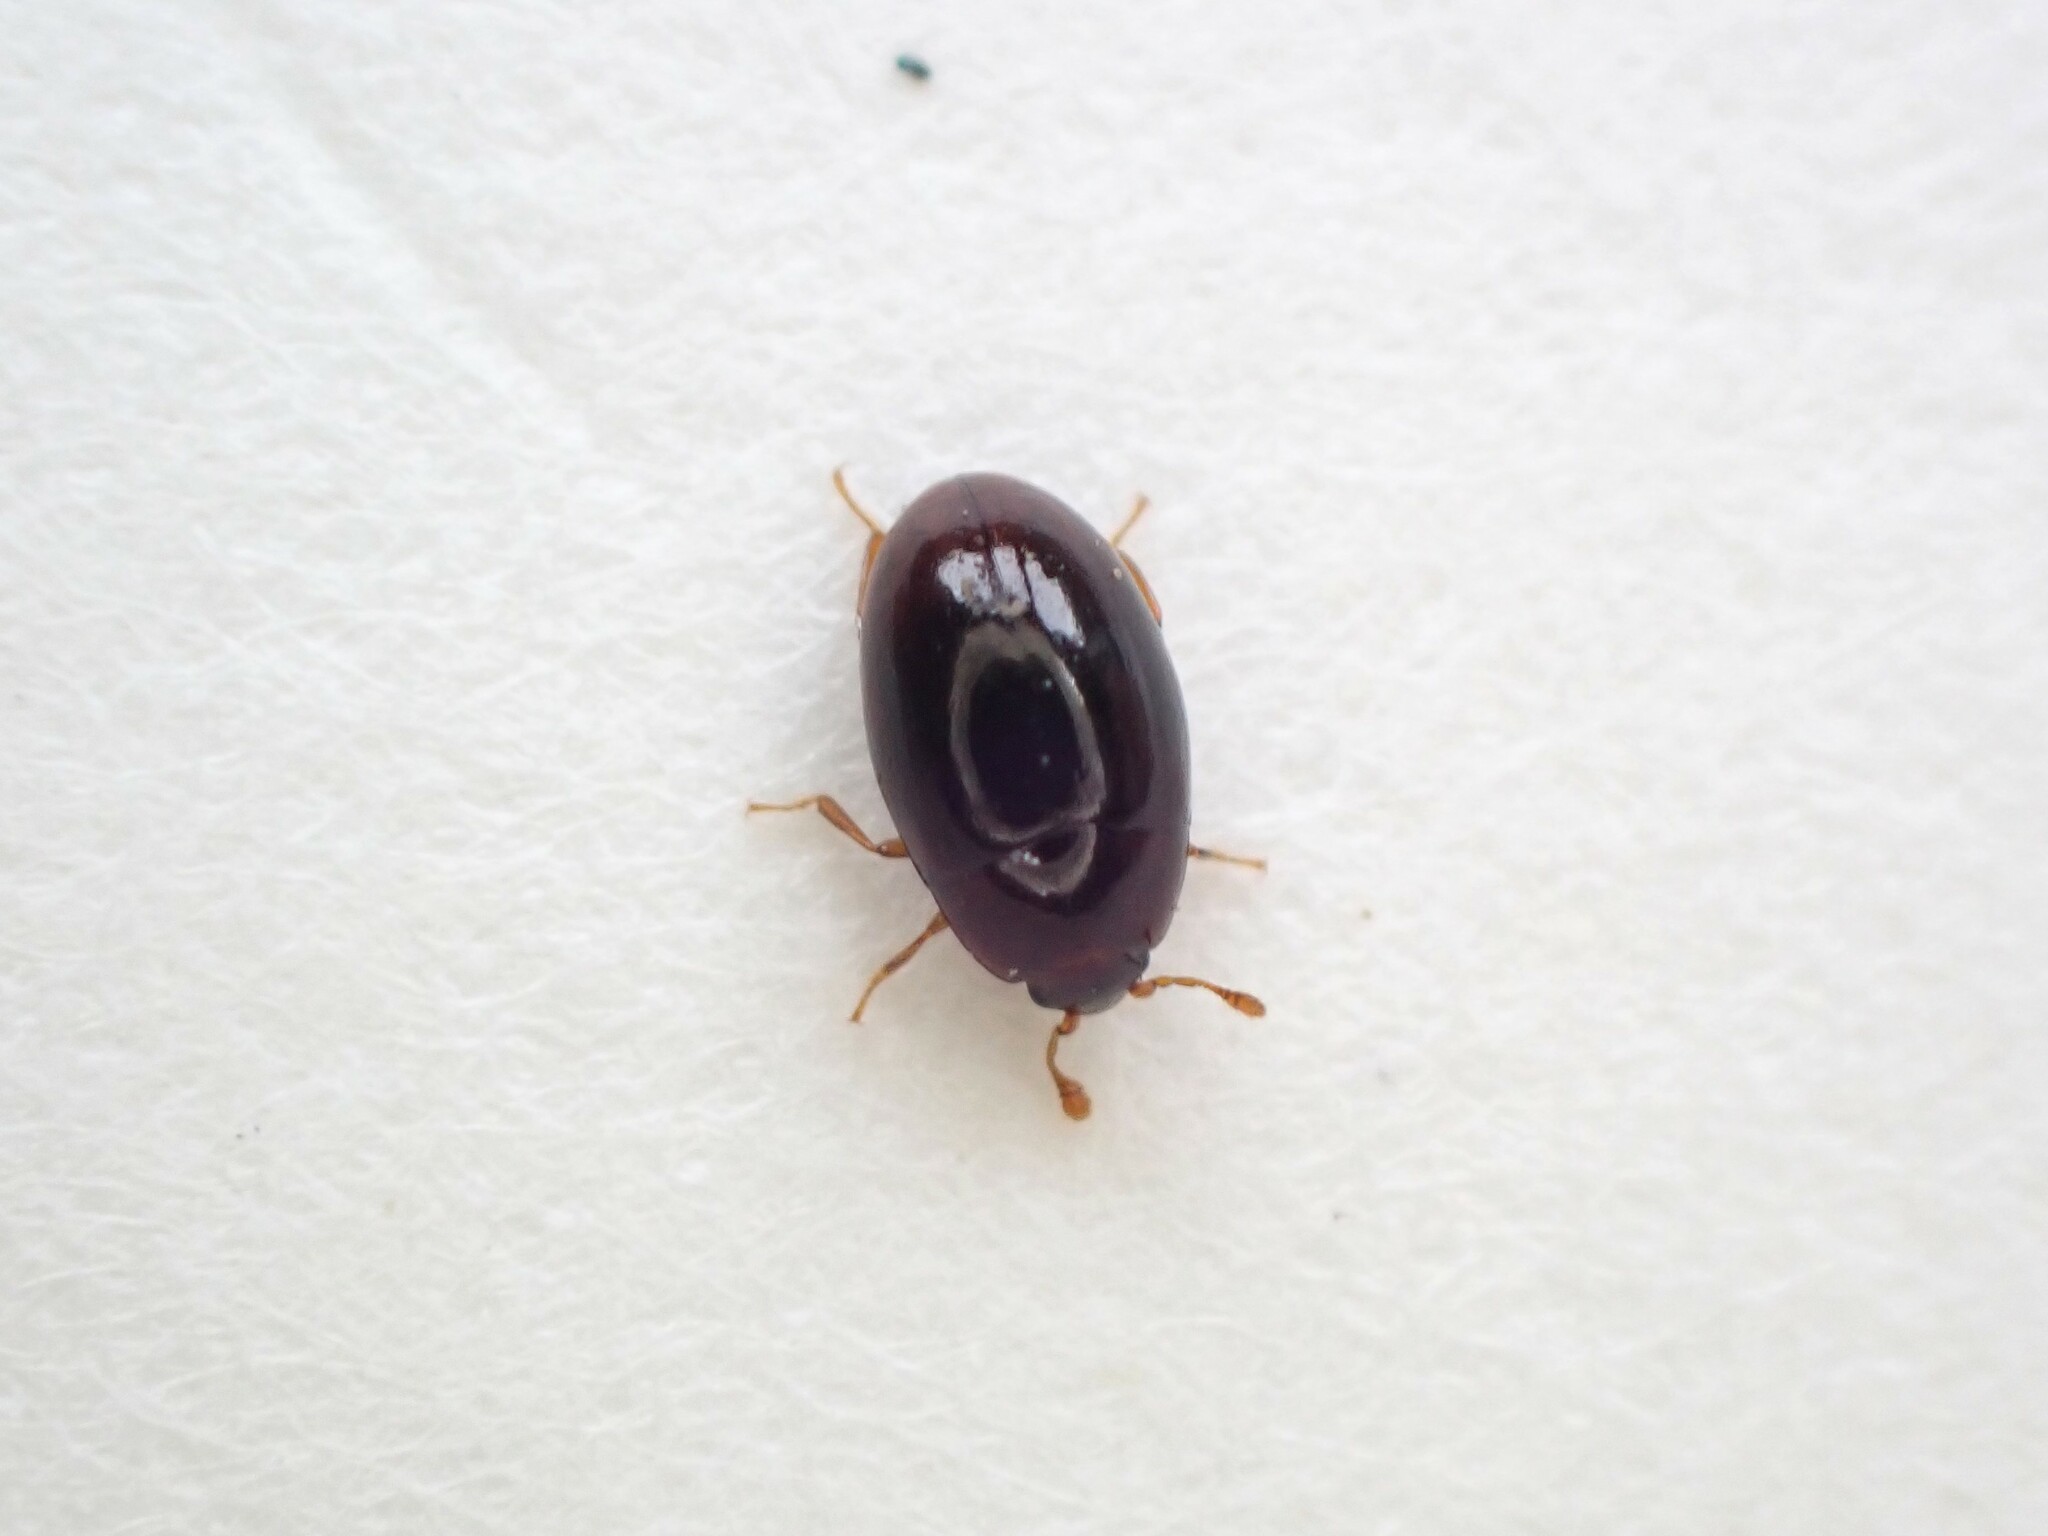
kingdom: Animalia
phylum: Arthropoda
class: Insecta
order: Coleoptera
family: Cerylonidae
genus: Hypodacnella
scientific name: Hypodacnella
